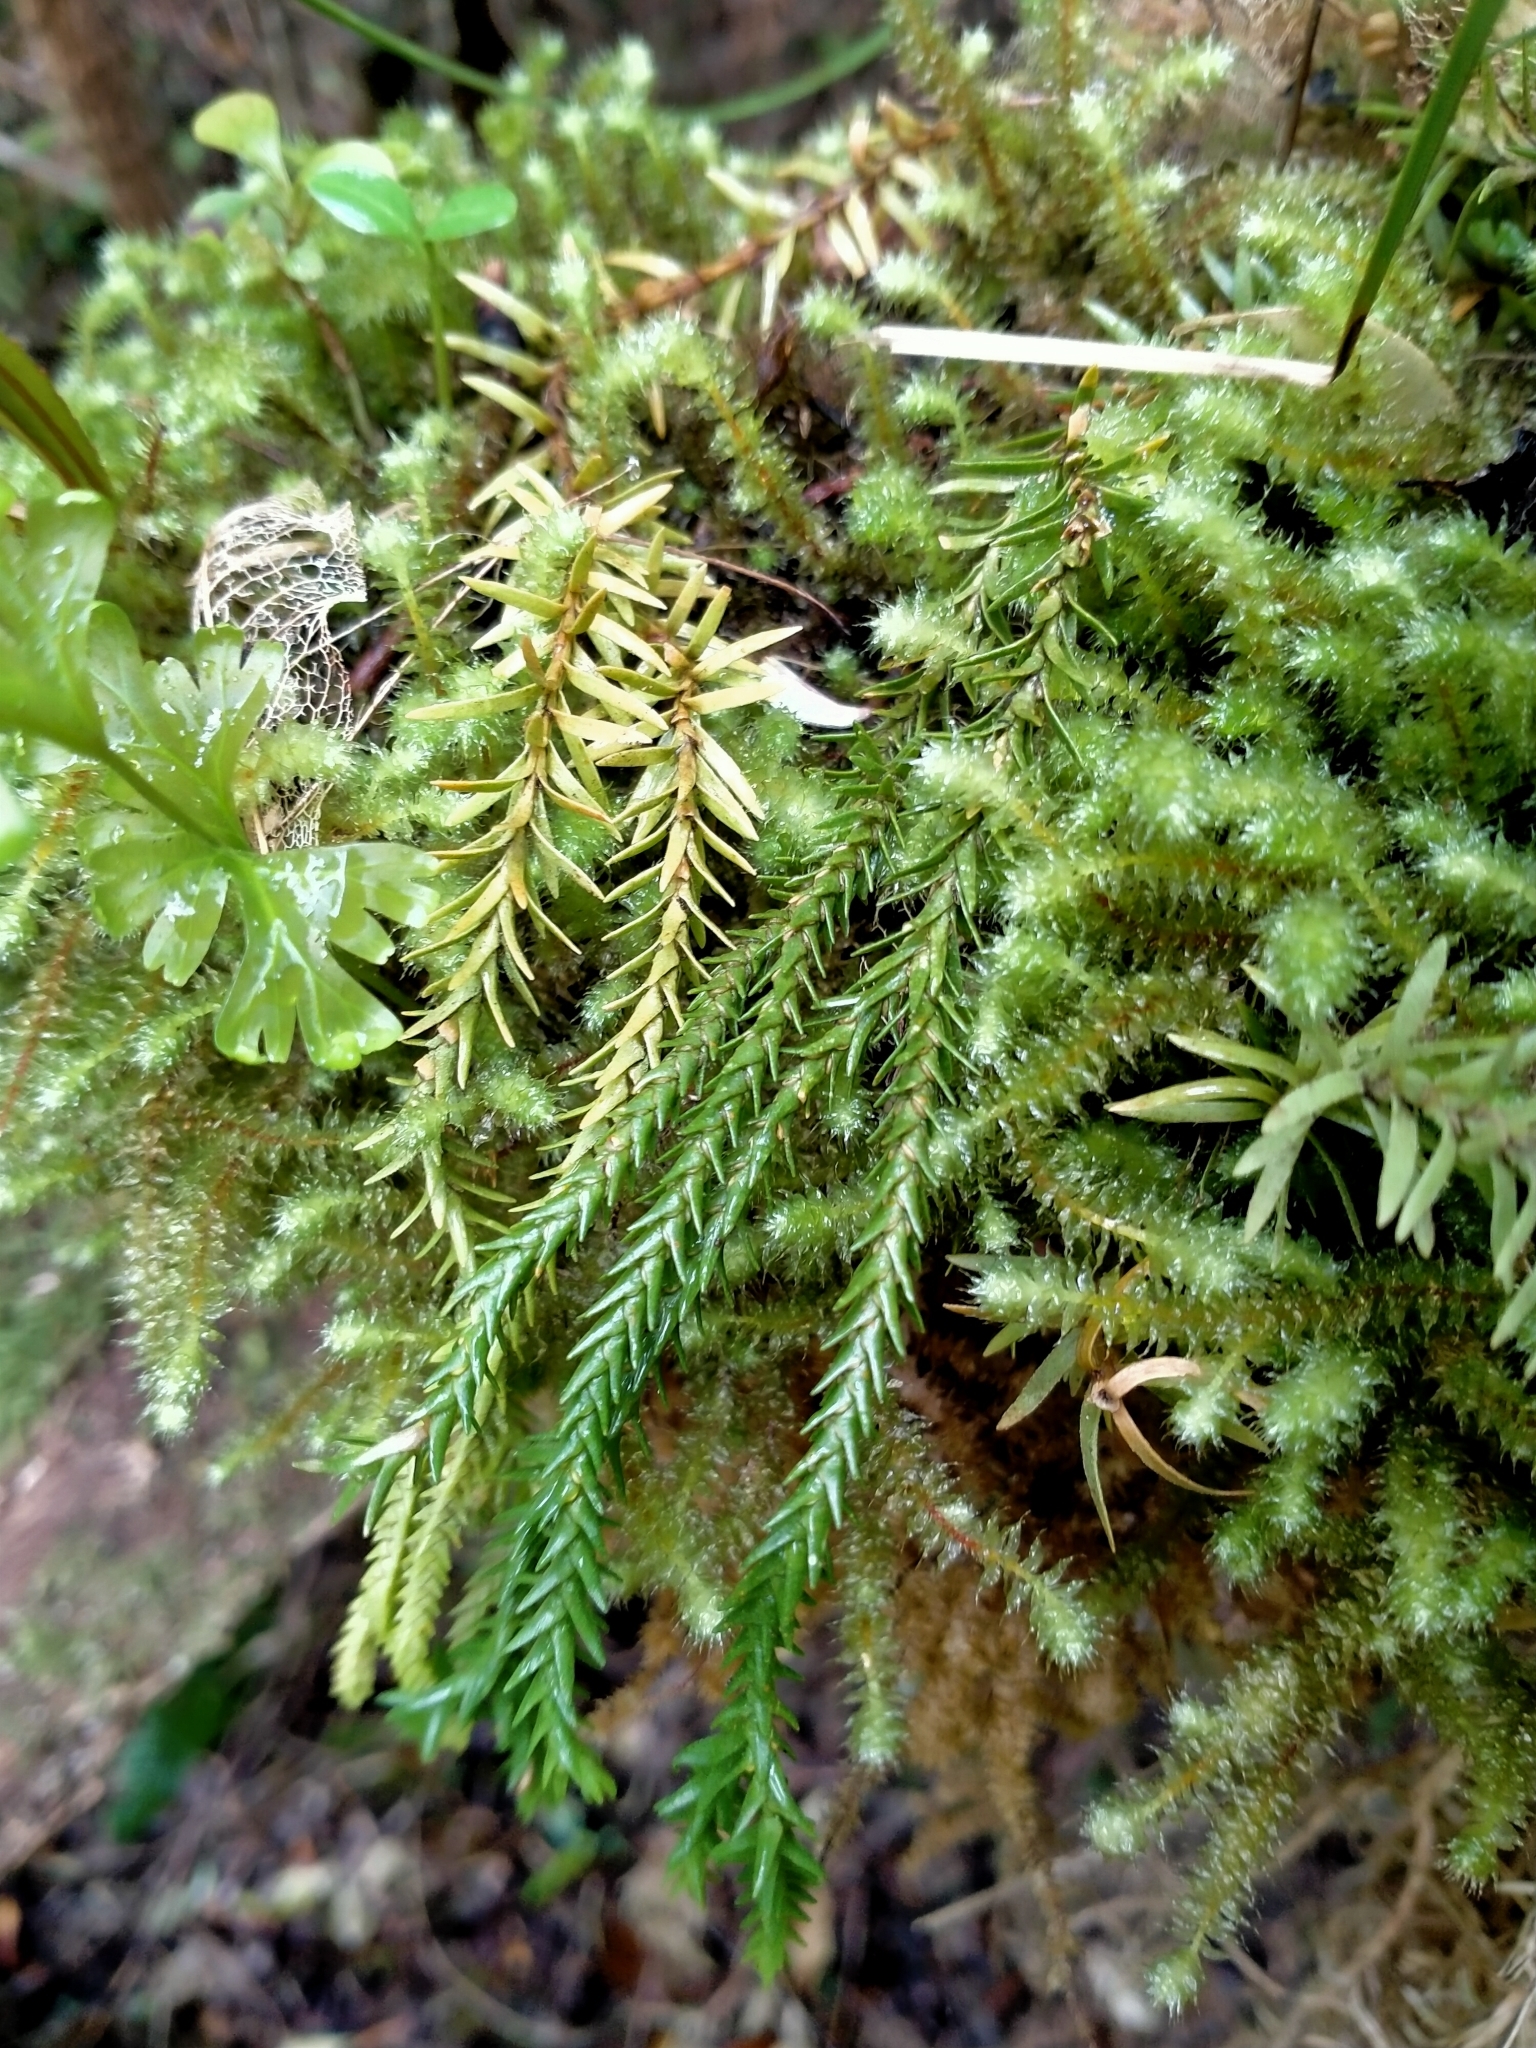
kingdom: Plantae
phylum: Tracheophyta
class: Lycopodiopsida
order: Lycopodiales
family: Lycopodiaceae
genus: Phlegmariurus
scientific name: Phlegmariurus varius
